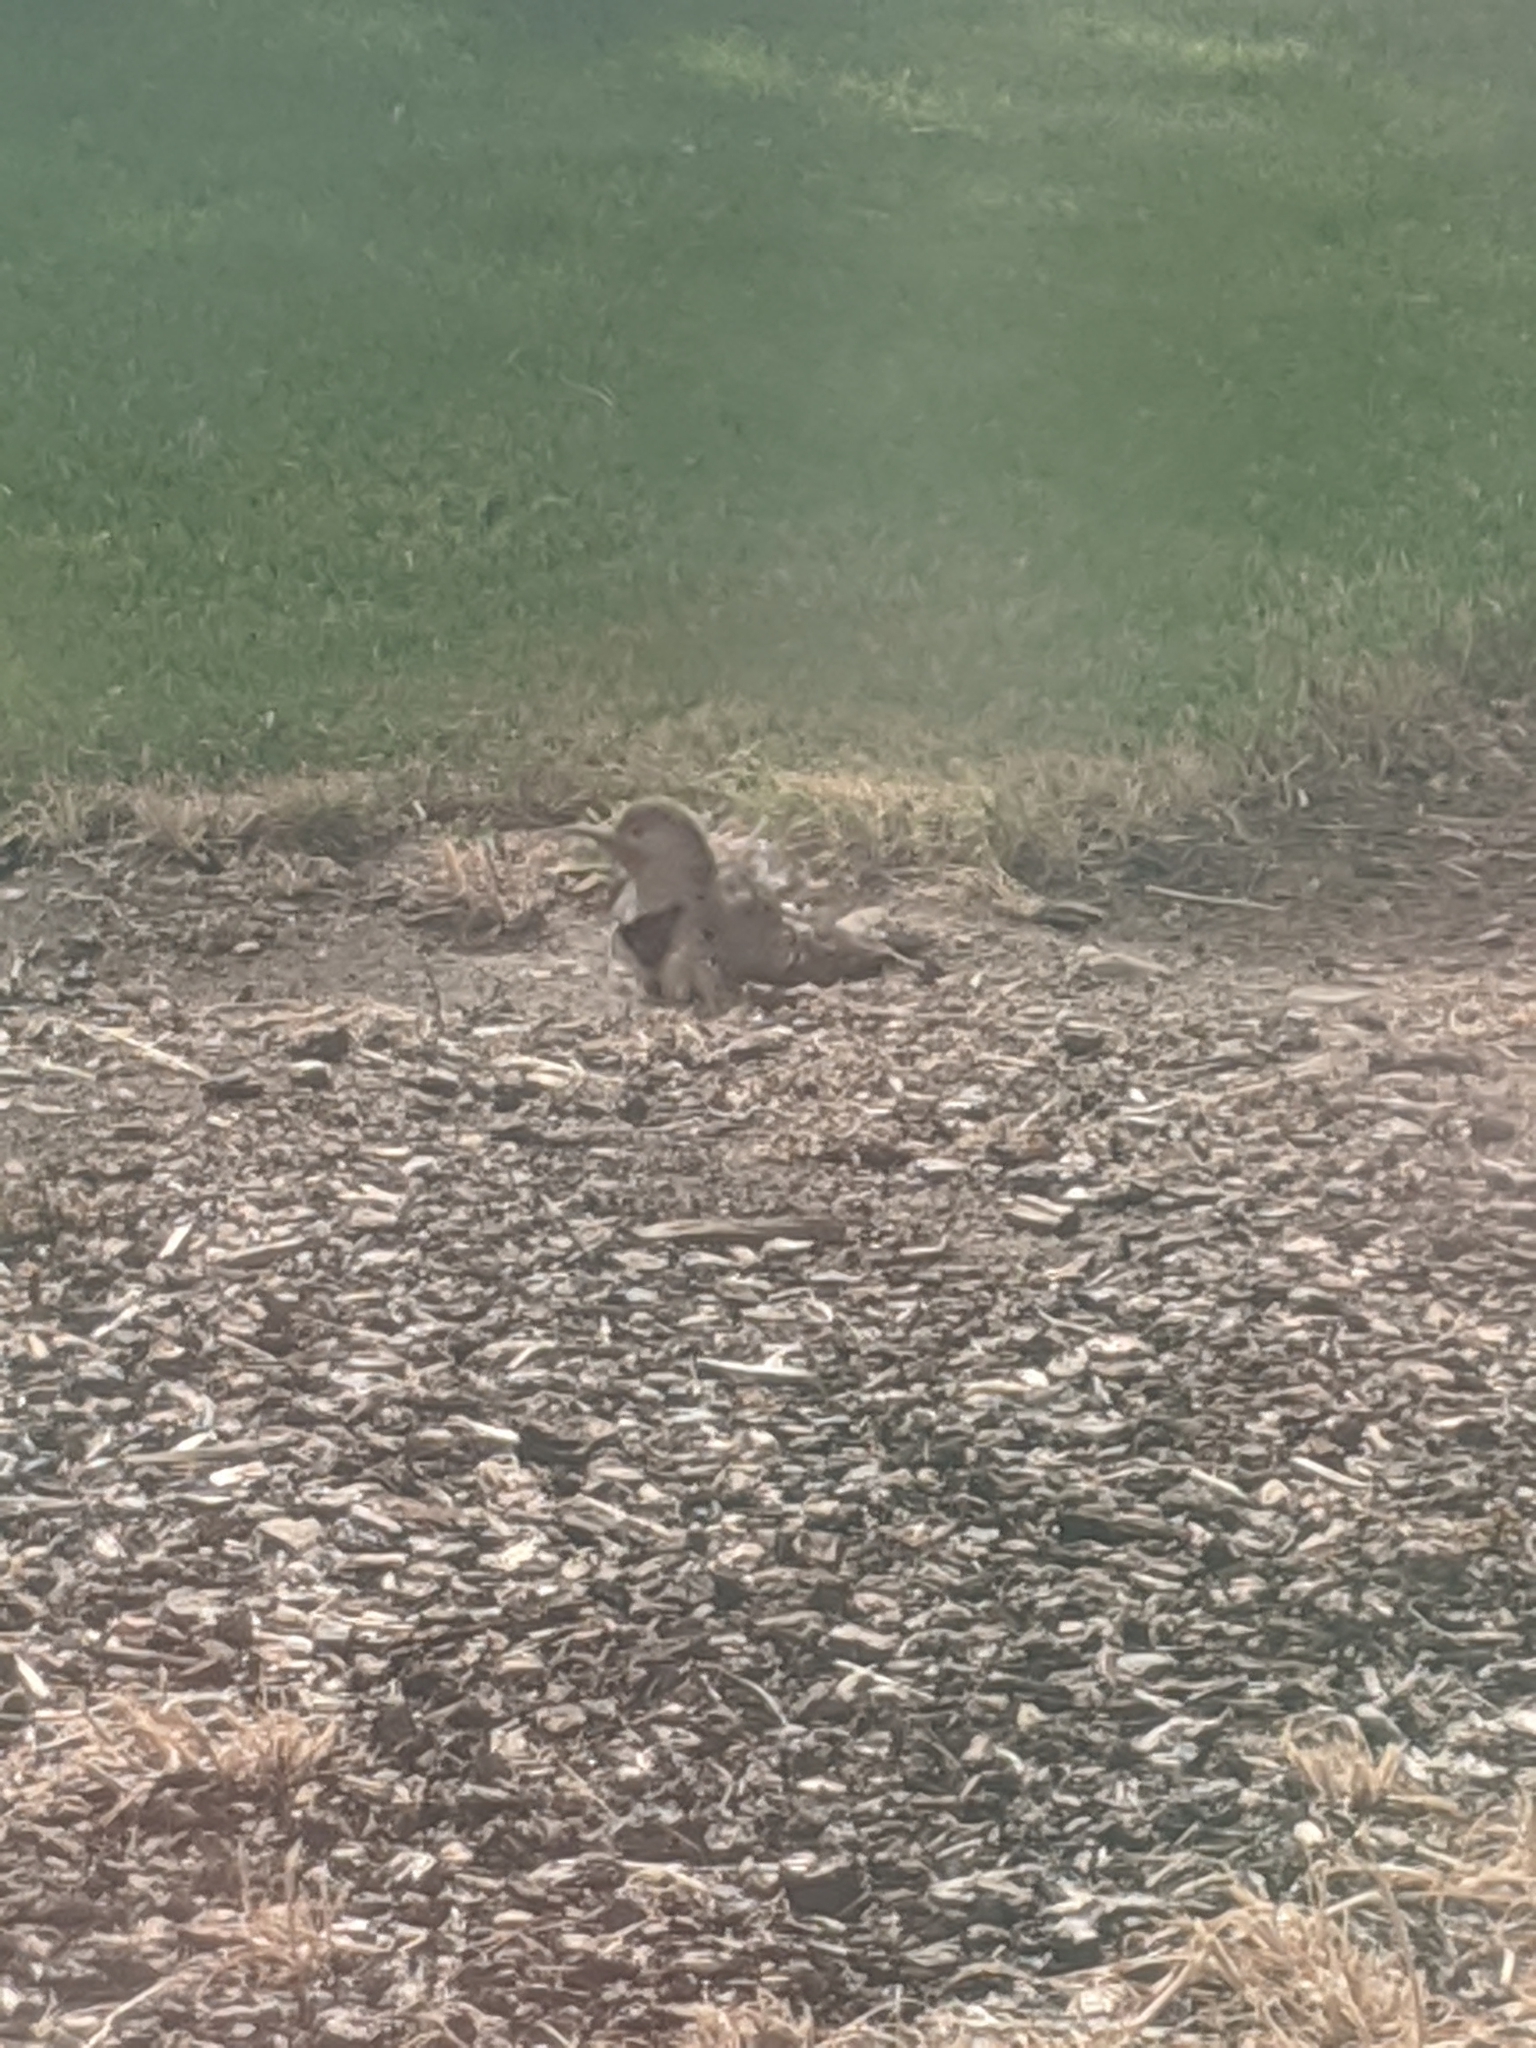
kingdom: Animalia
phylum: Chordata
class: Aves
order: Piciformes
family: Picidae
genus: Colaptes
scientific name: Colaptes auratus
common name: Northern flicker
